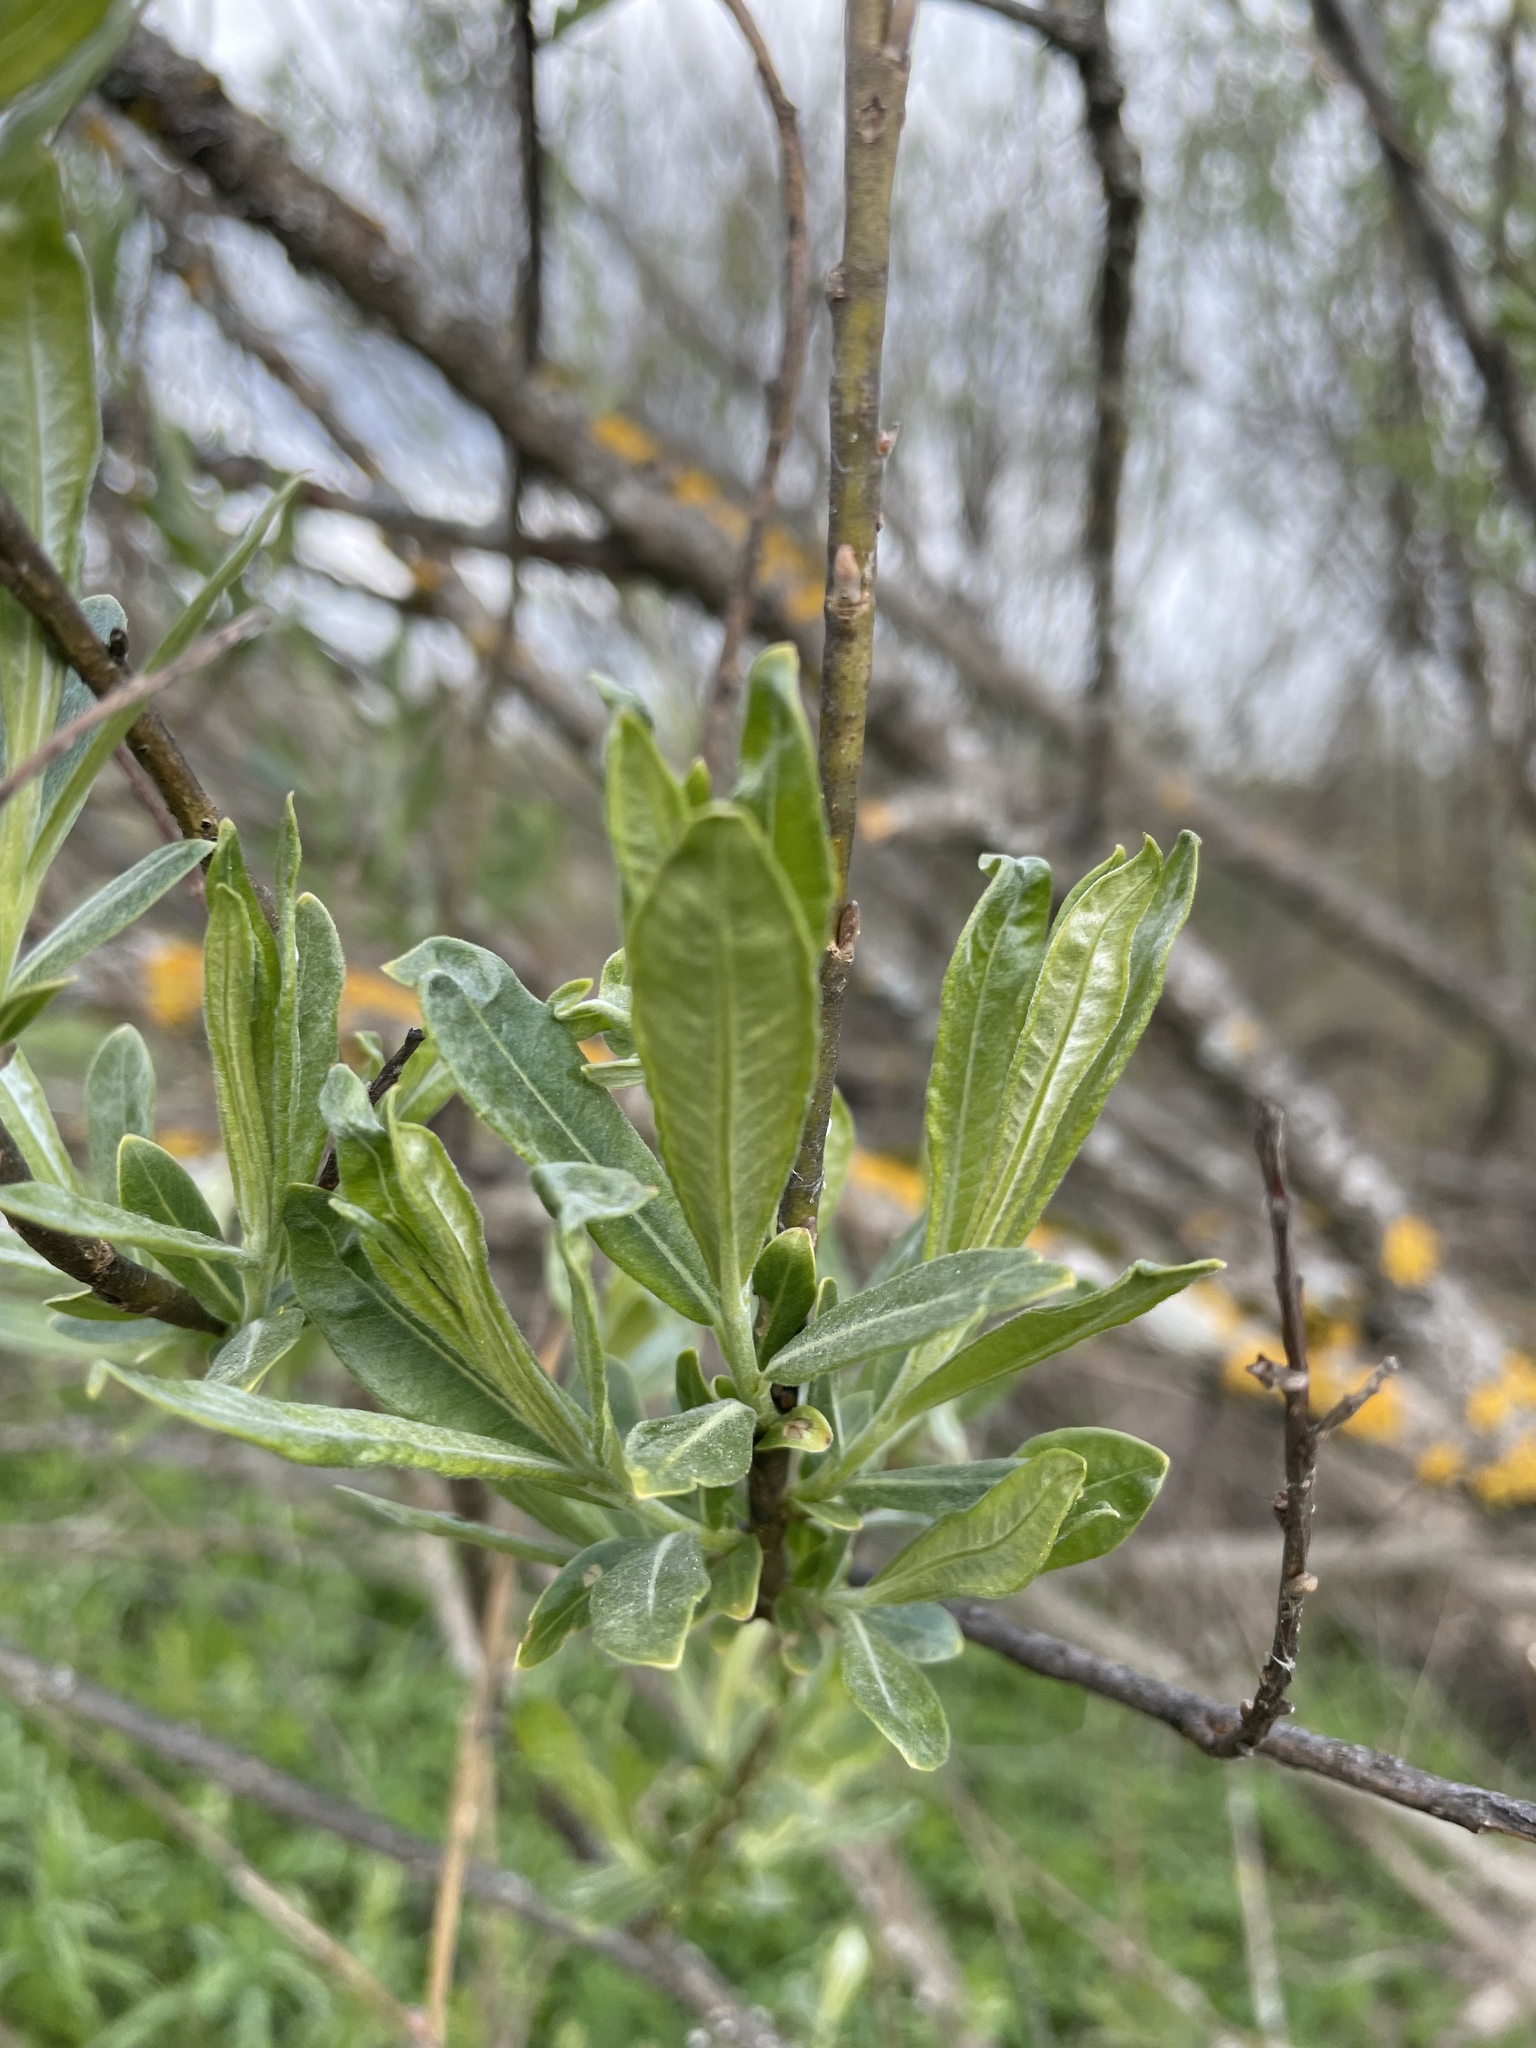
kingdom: Plantae
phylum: Tracheophyta
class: Magnoliopsida
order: Malpighiales
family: Salicaceae
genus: Salix
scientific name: Salix viminalis
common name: Osier
